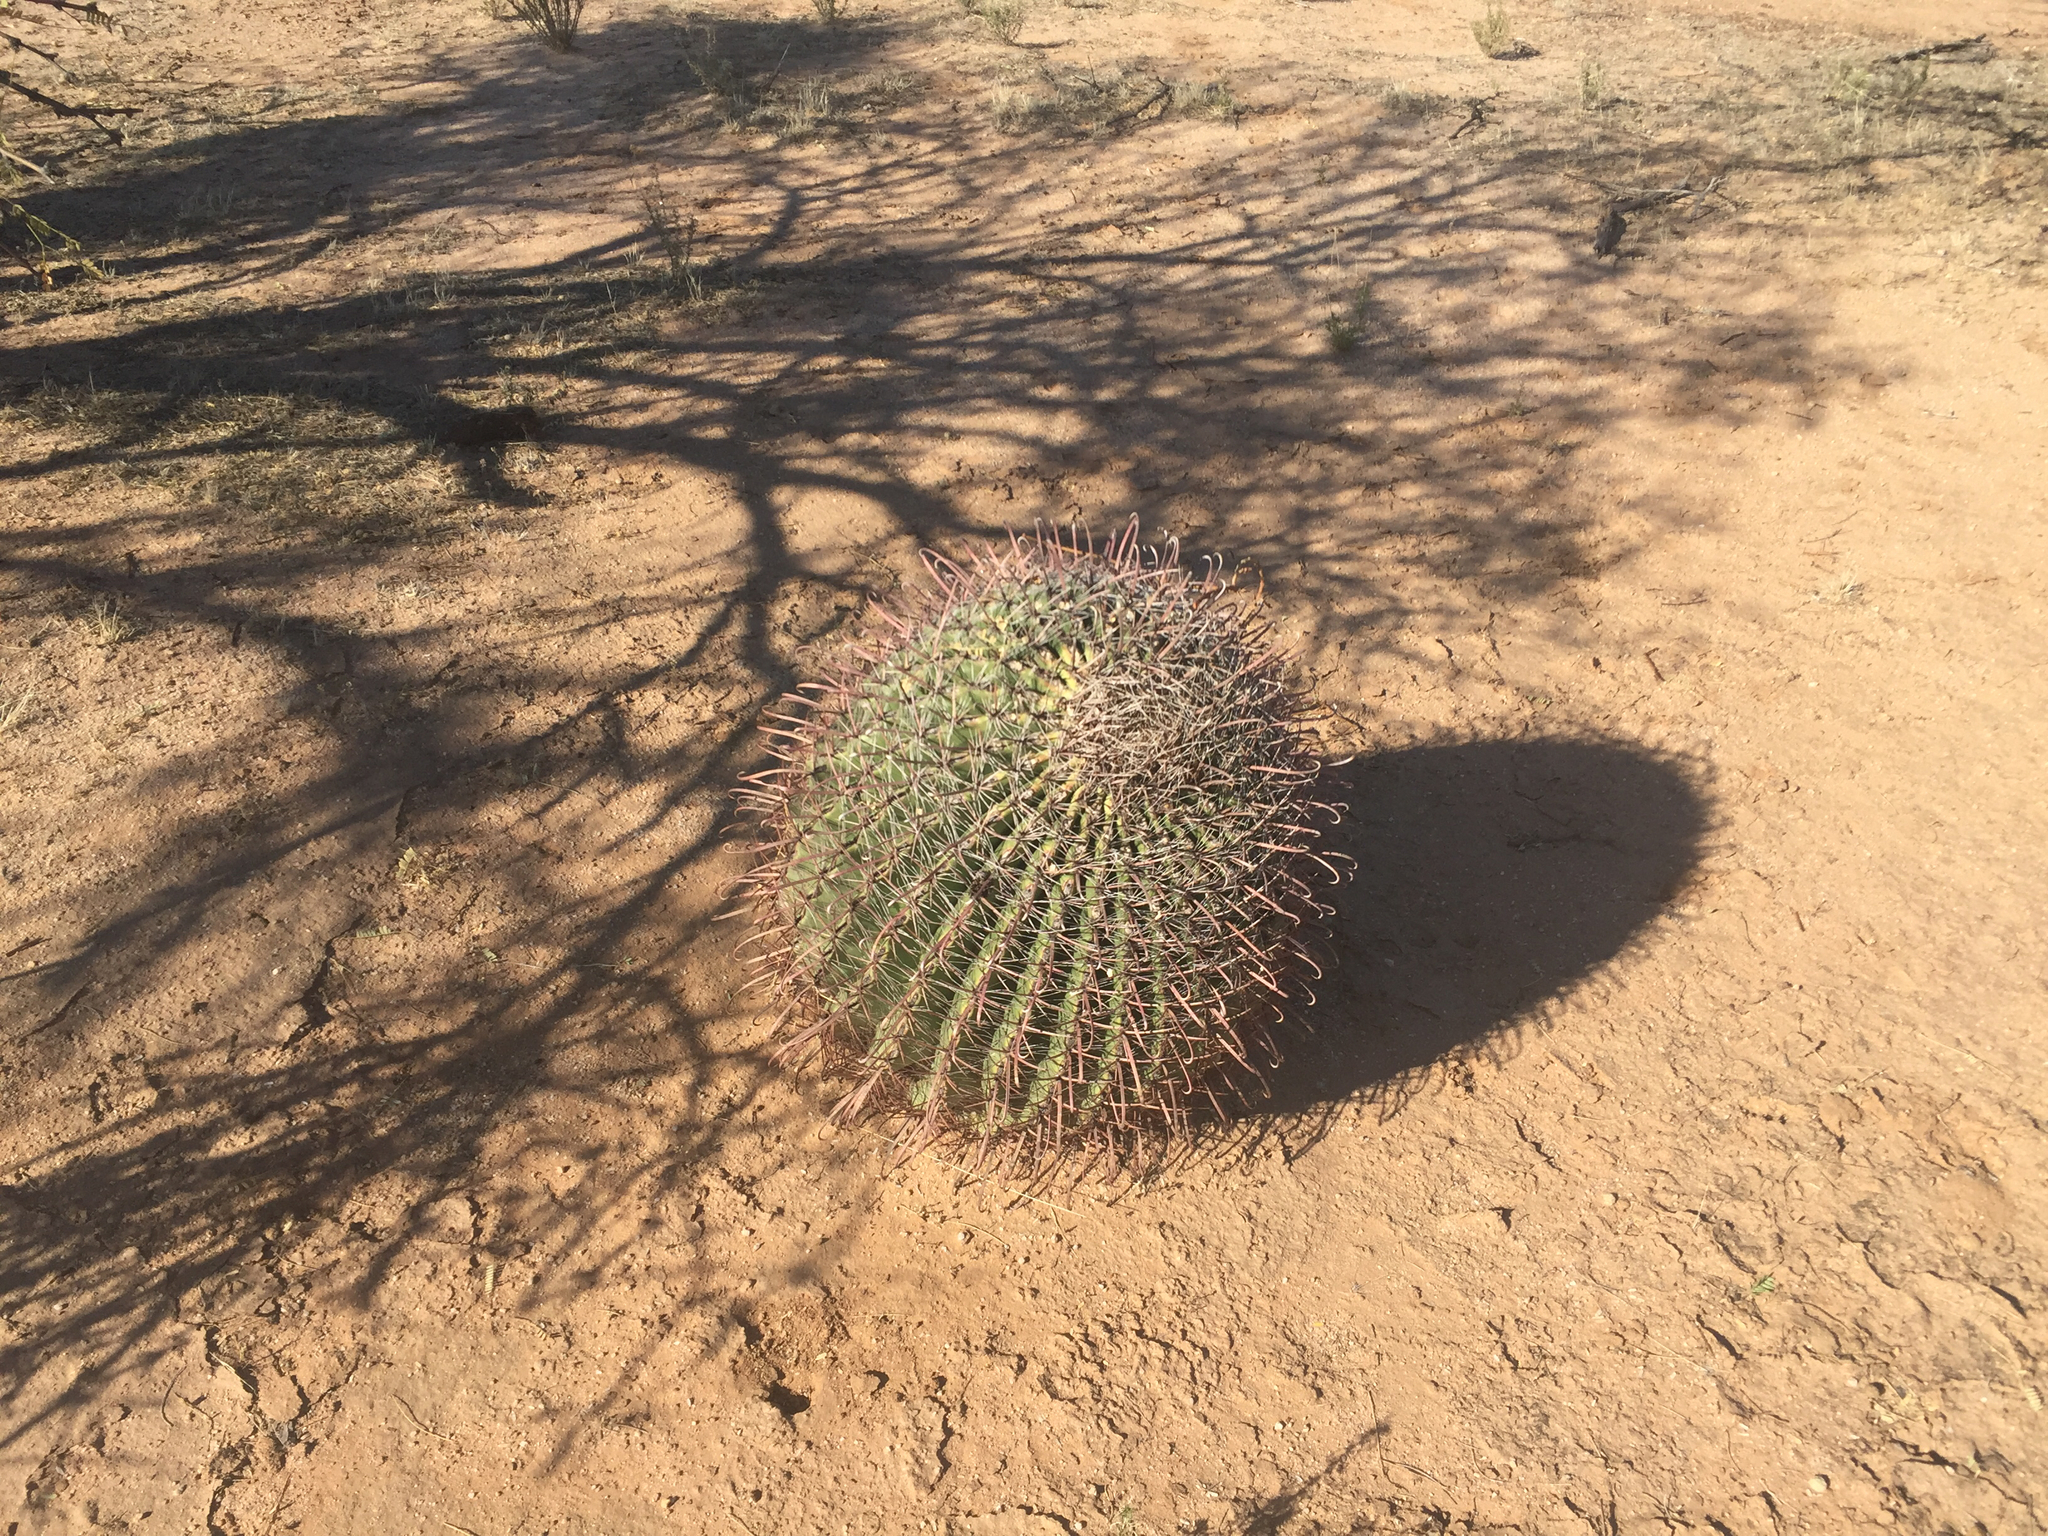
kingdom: Plantae
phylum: Tracheophyta
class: Magnoliopsida
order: Caryophyllales
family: Cactaceae
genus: Ferocactus
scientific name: Ferocactus wislizeni
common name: Candy barrel cactus
